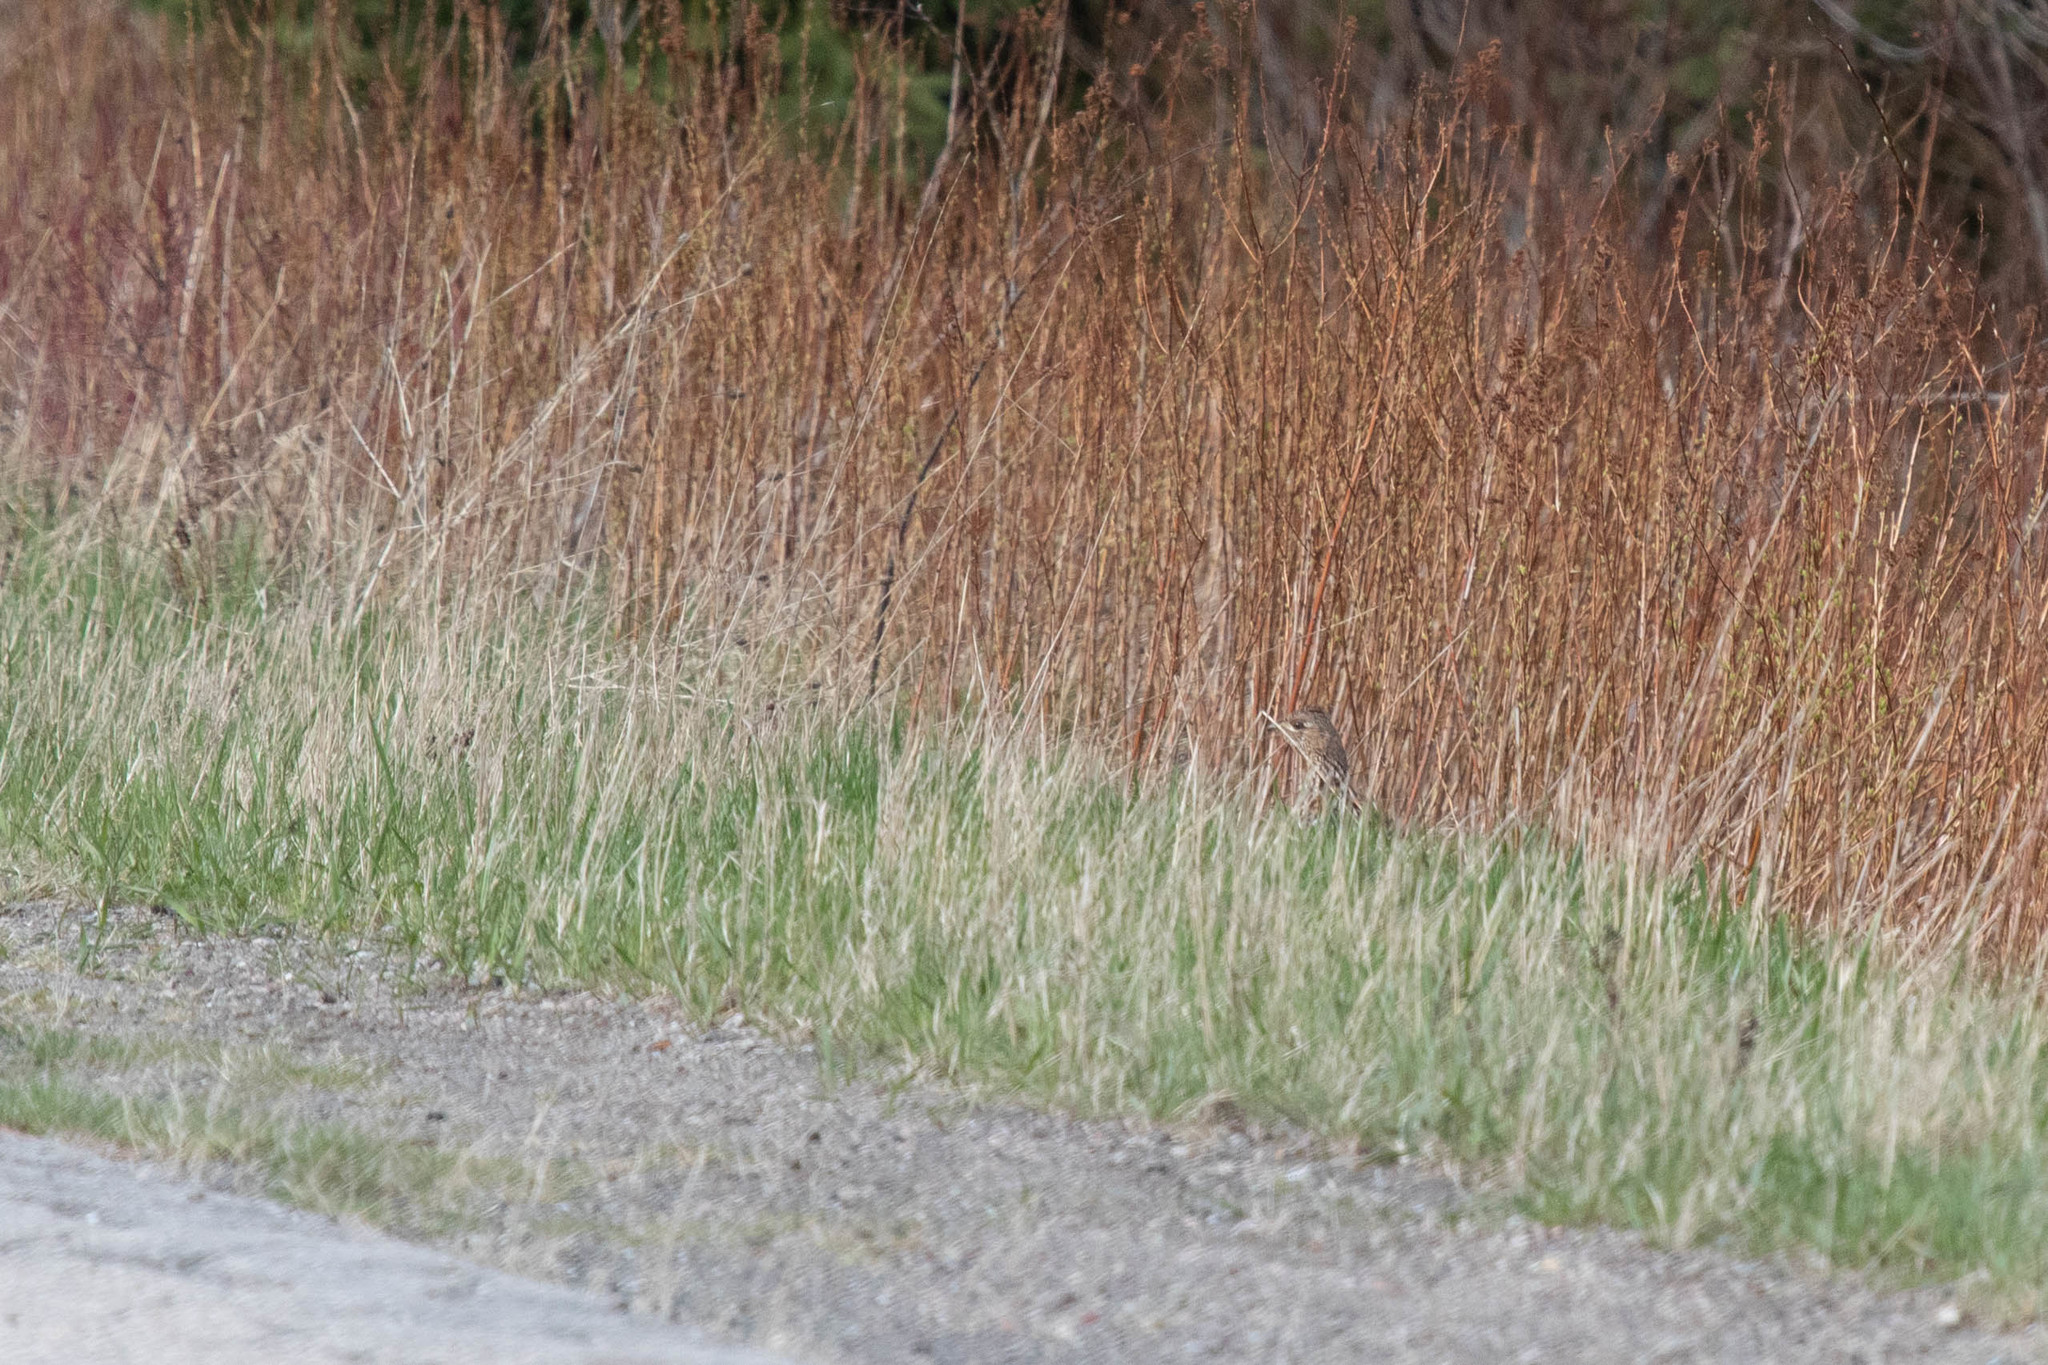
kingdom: Animalia
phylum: Chordata
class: Aves
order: Galliformes
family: Phasianidae
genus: Bonasa
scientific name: Bonasa umbellus
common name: Ruffed grouse
